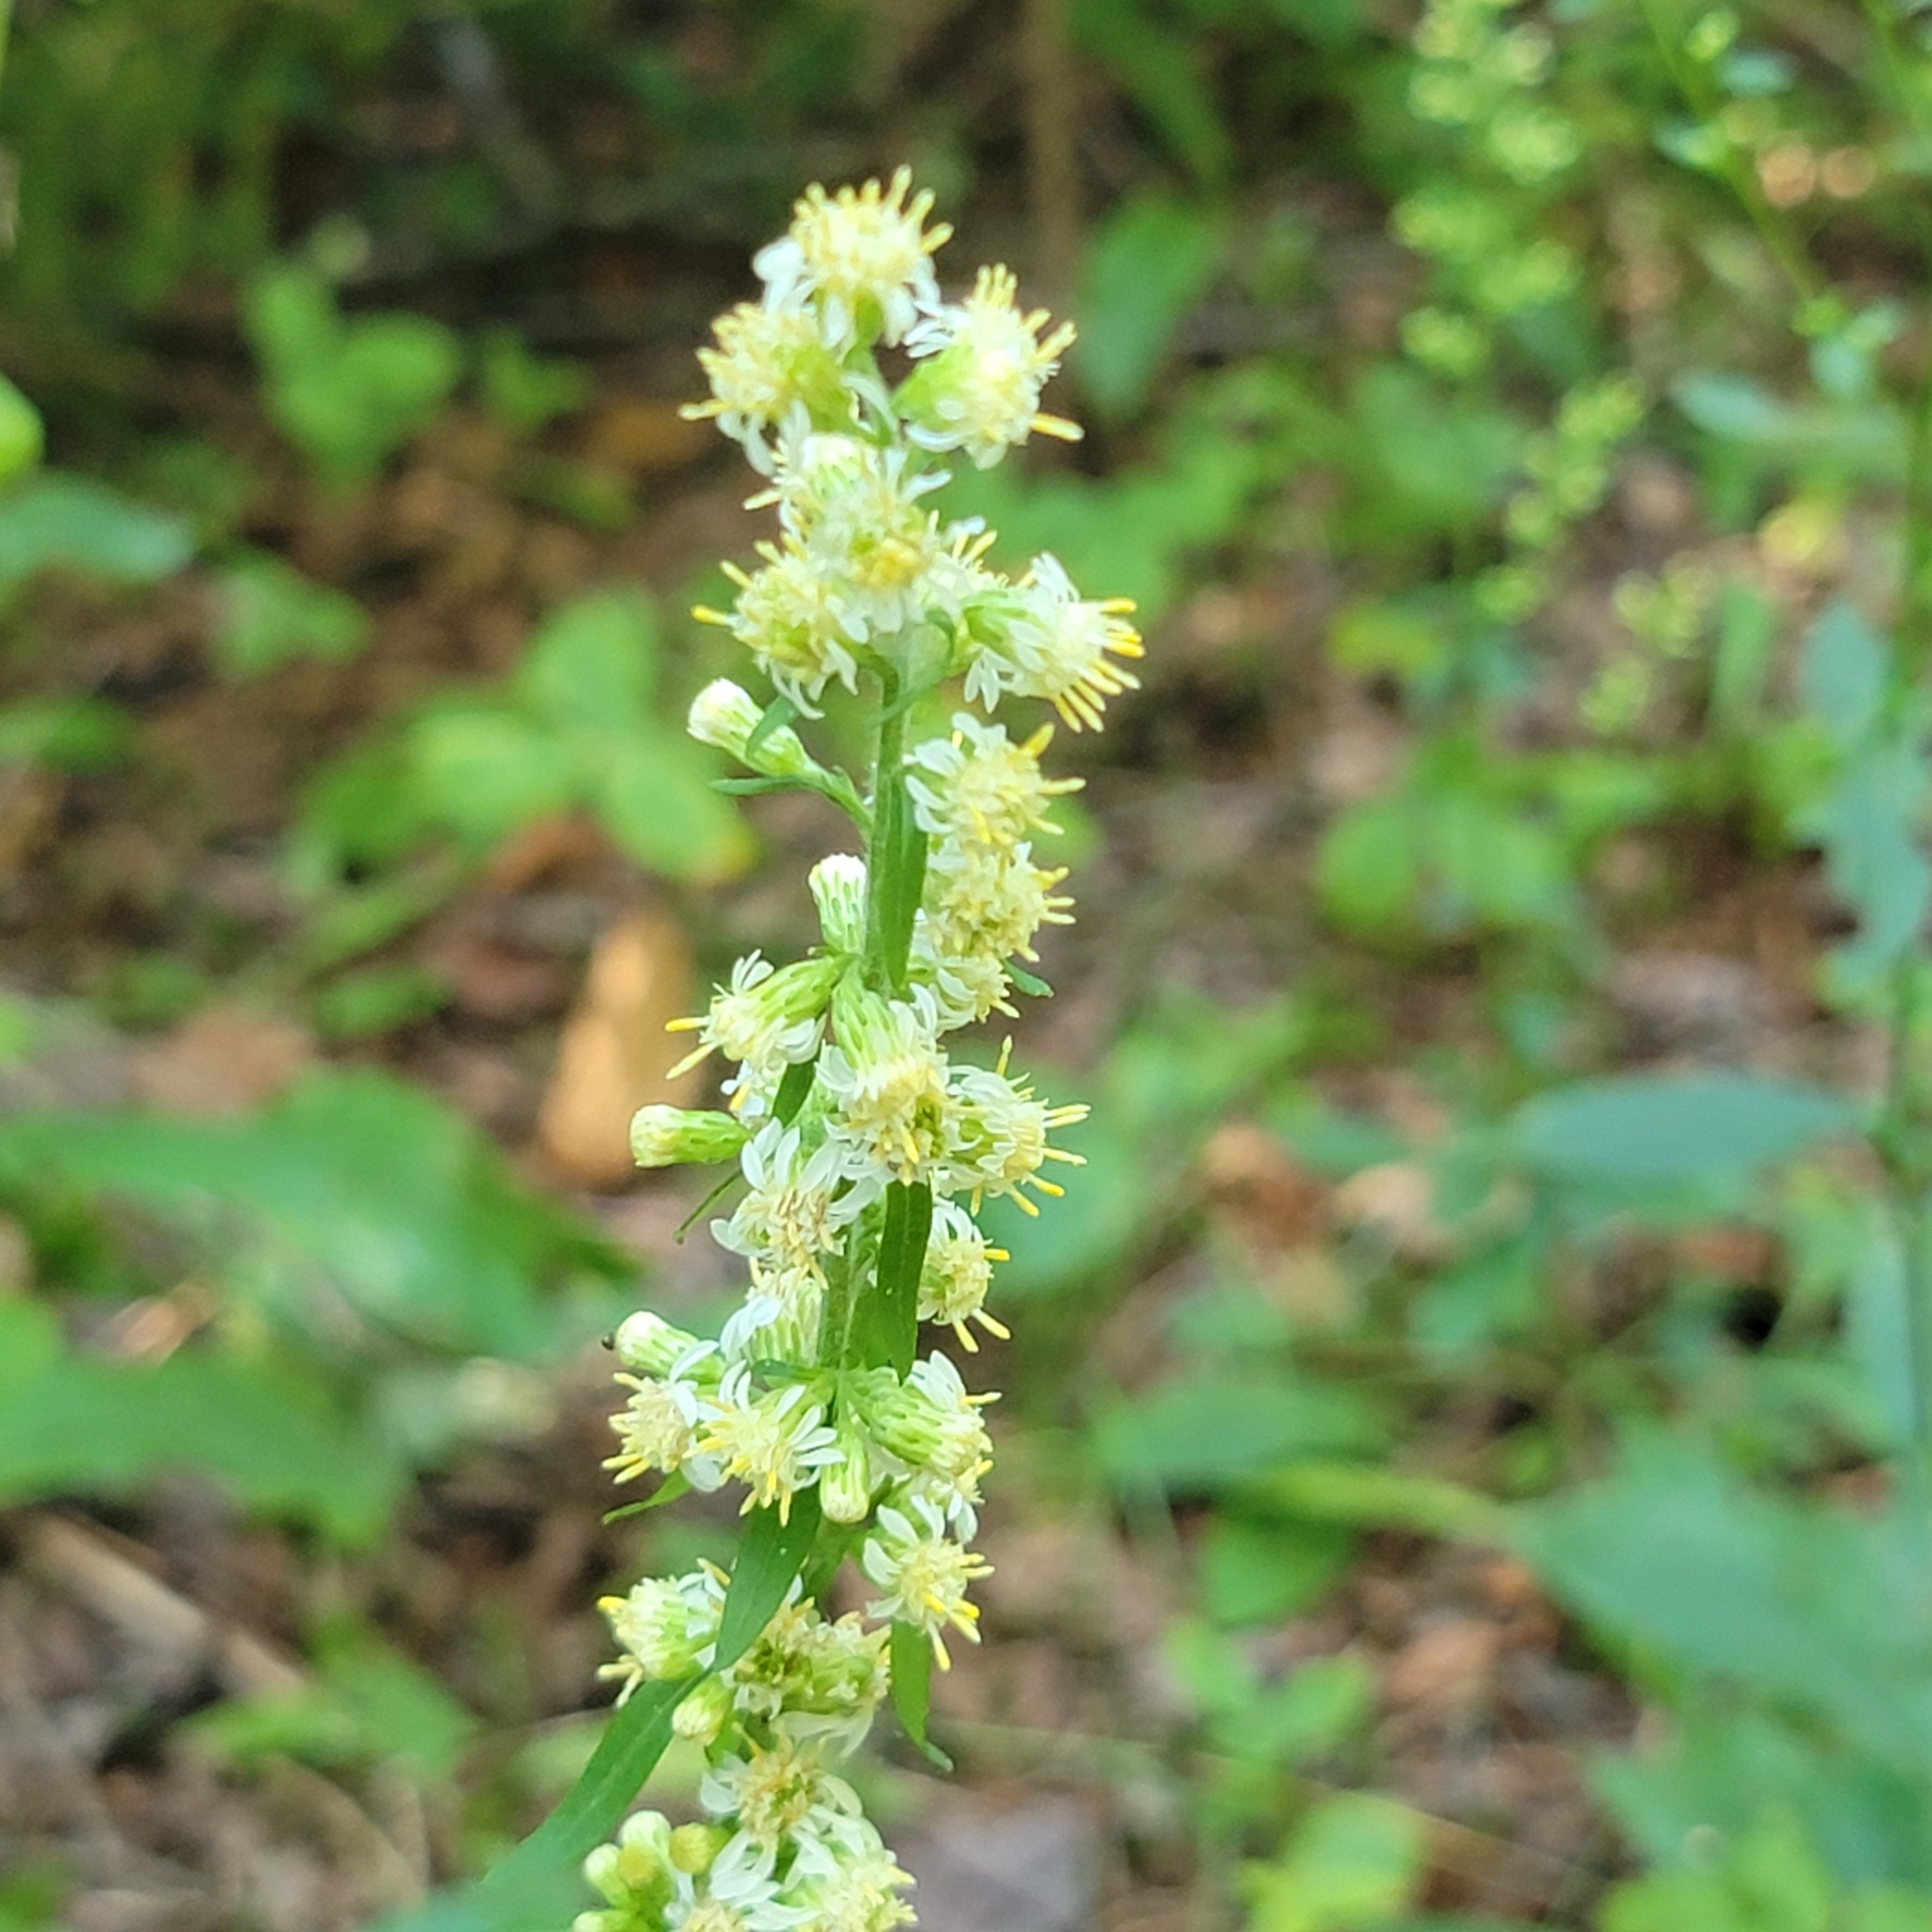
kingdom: Plantae
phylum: Tracheophyta
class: Magnoliopsida
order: Asterales
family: Asteraceae
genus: Solidago
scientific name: Solidago bicolor
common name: Silverrod
